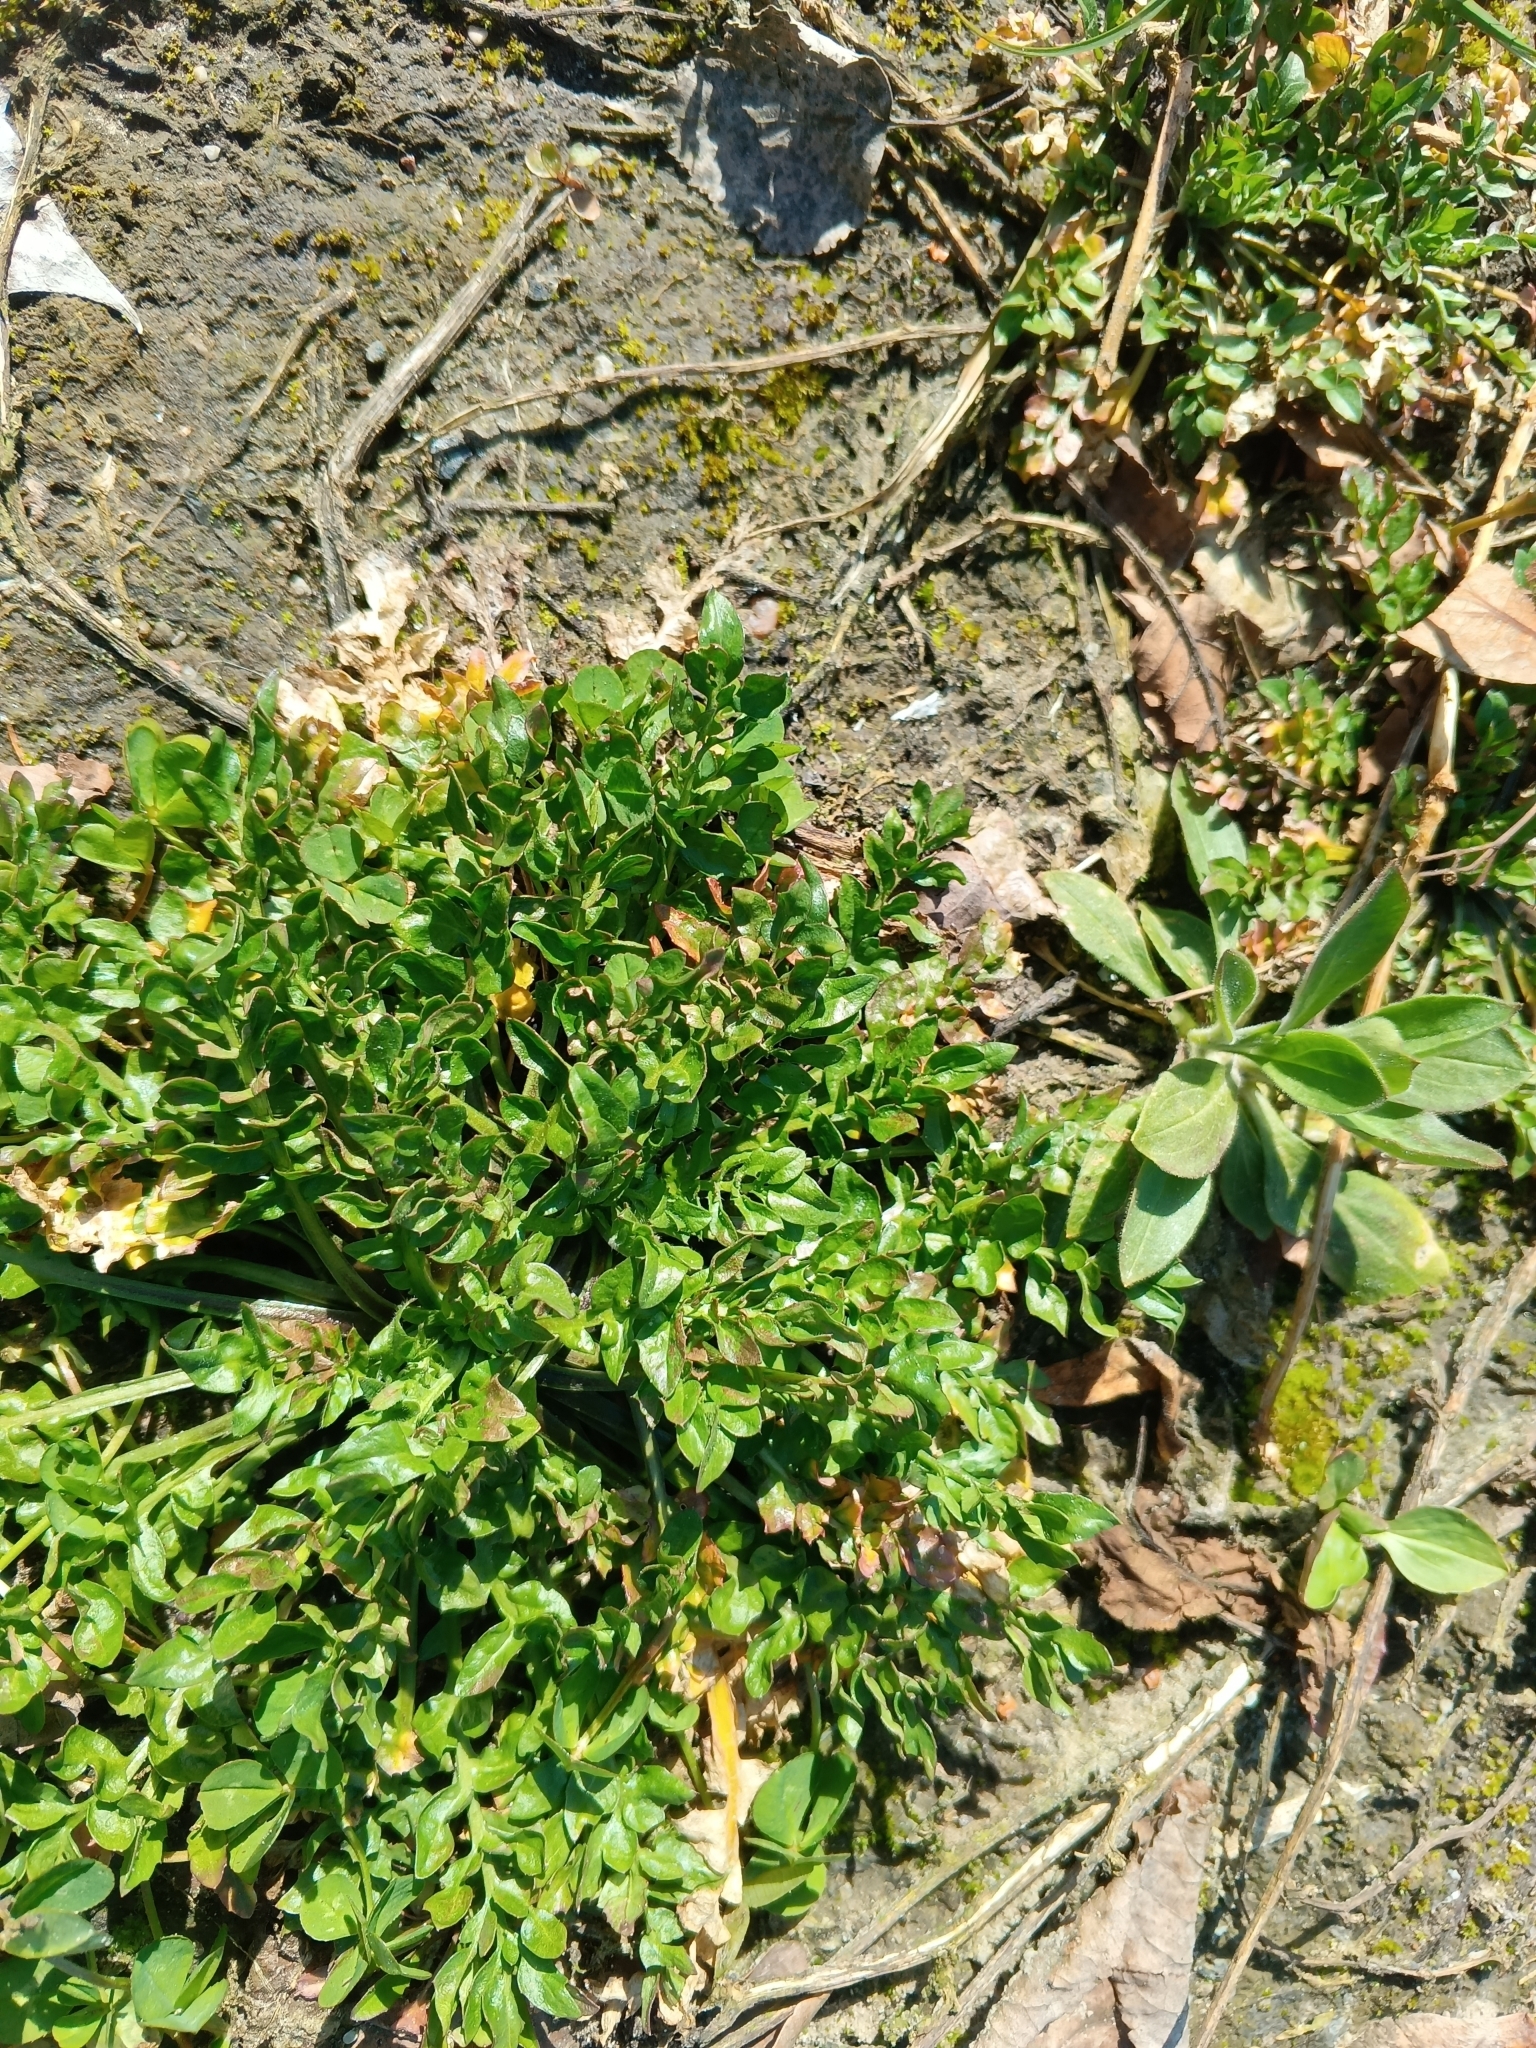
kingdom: Plantae
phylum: Tracheophyta
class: Magnoliopsida
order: Brassicales
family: Brassicaceae
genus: Capsella
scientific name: Capsella bursa-pastoris
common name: Shepherd's purse
